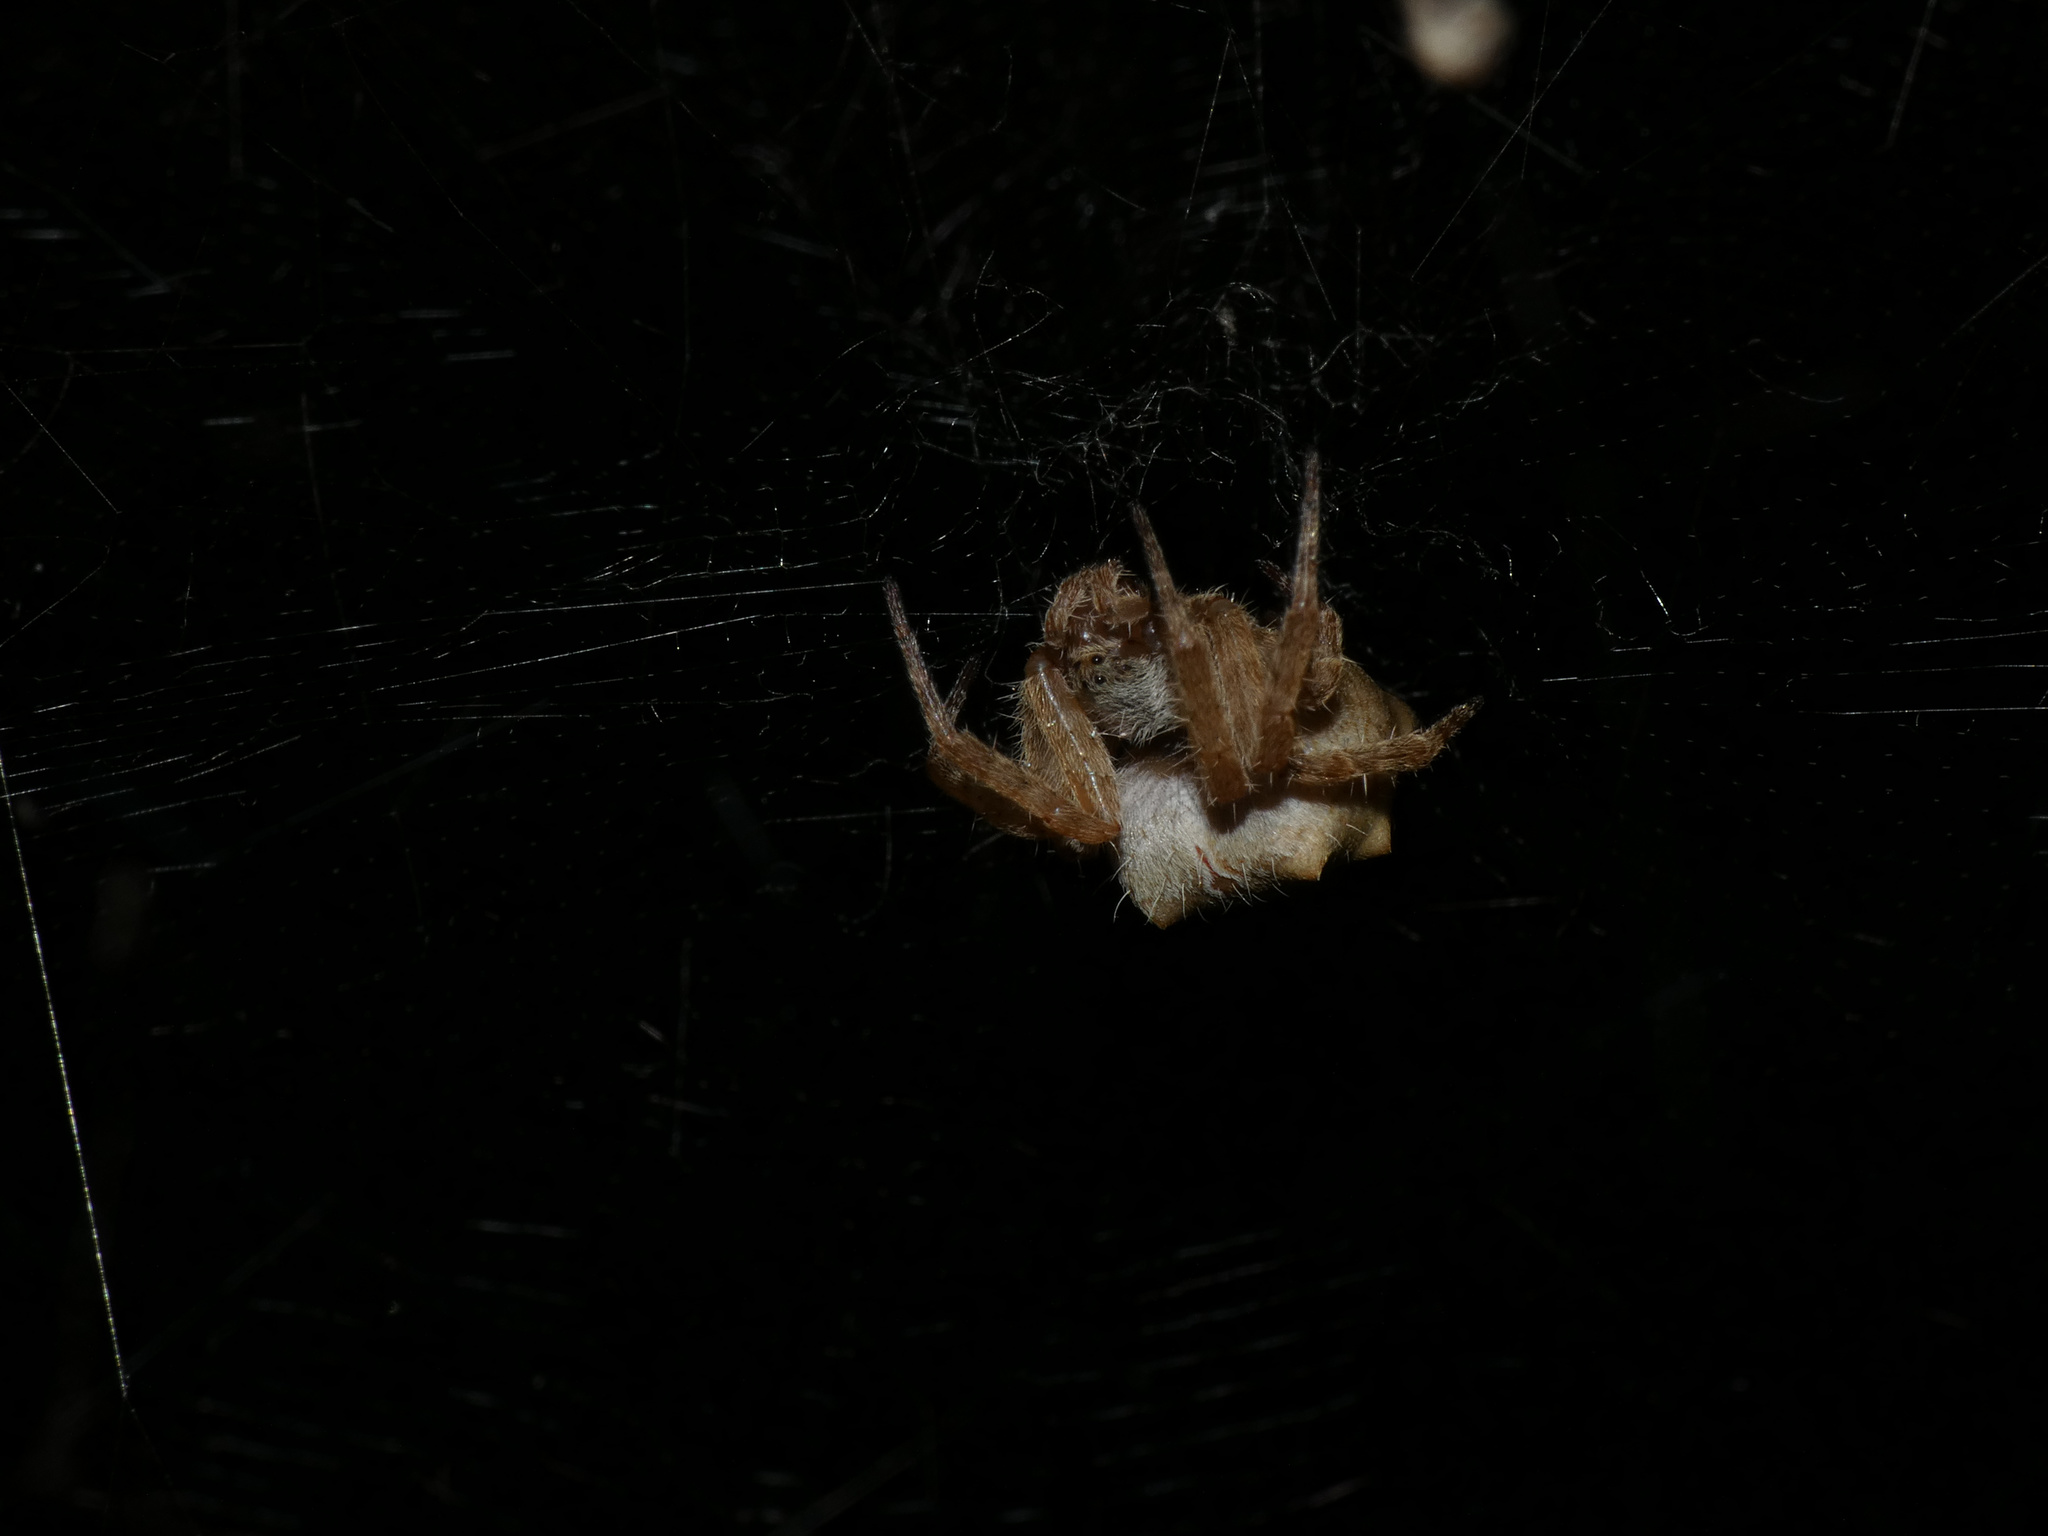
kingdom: Animalia
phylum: Arthropoda
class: Arachnida
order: Araneae
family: Araneidae
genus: Cyrtophora
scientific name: Cyrtophora citricola
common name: Orb weavers
